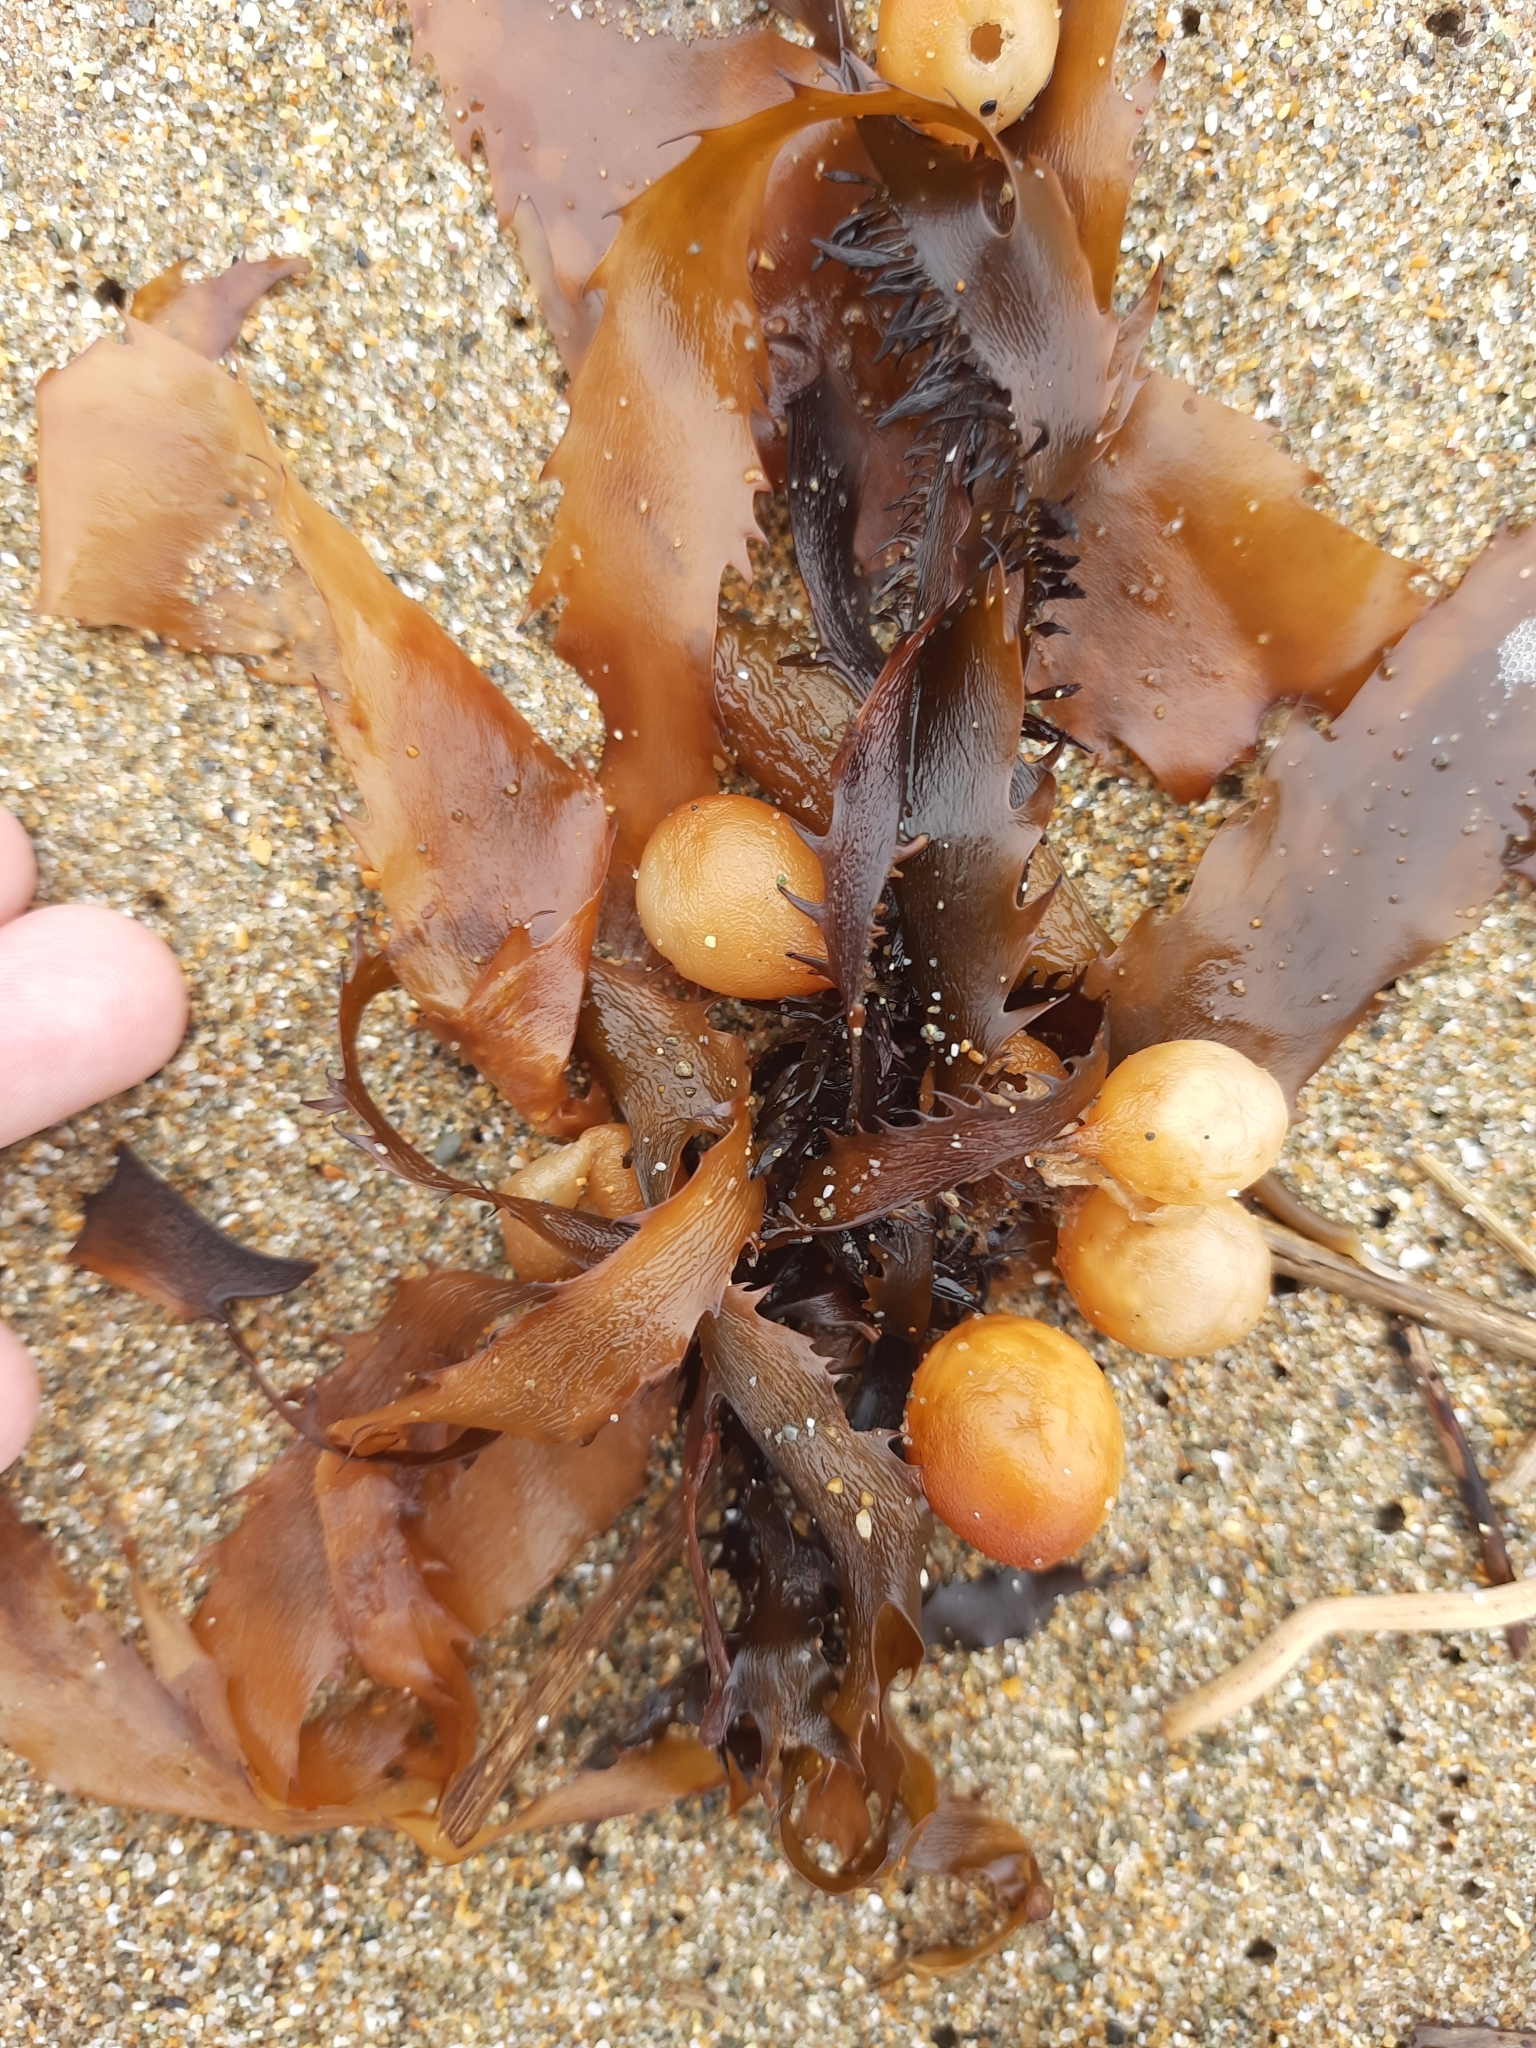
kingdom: Chromista
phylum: Ochrophyta
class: Phaeophyceae
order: Fucales
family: Seirococcaceae
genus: Marginariella
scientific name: Marginariella urvilliana
